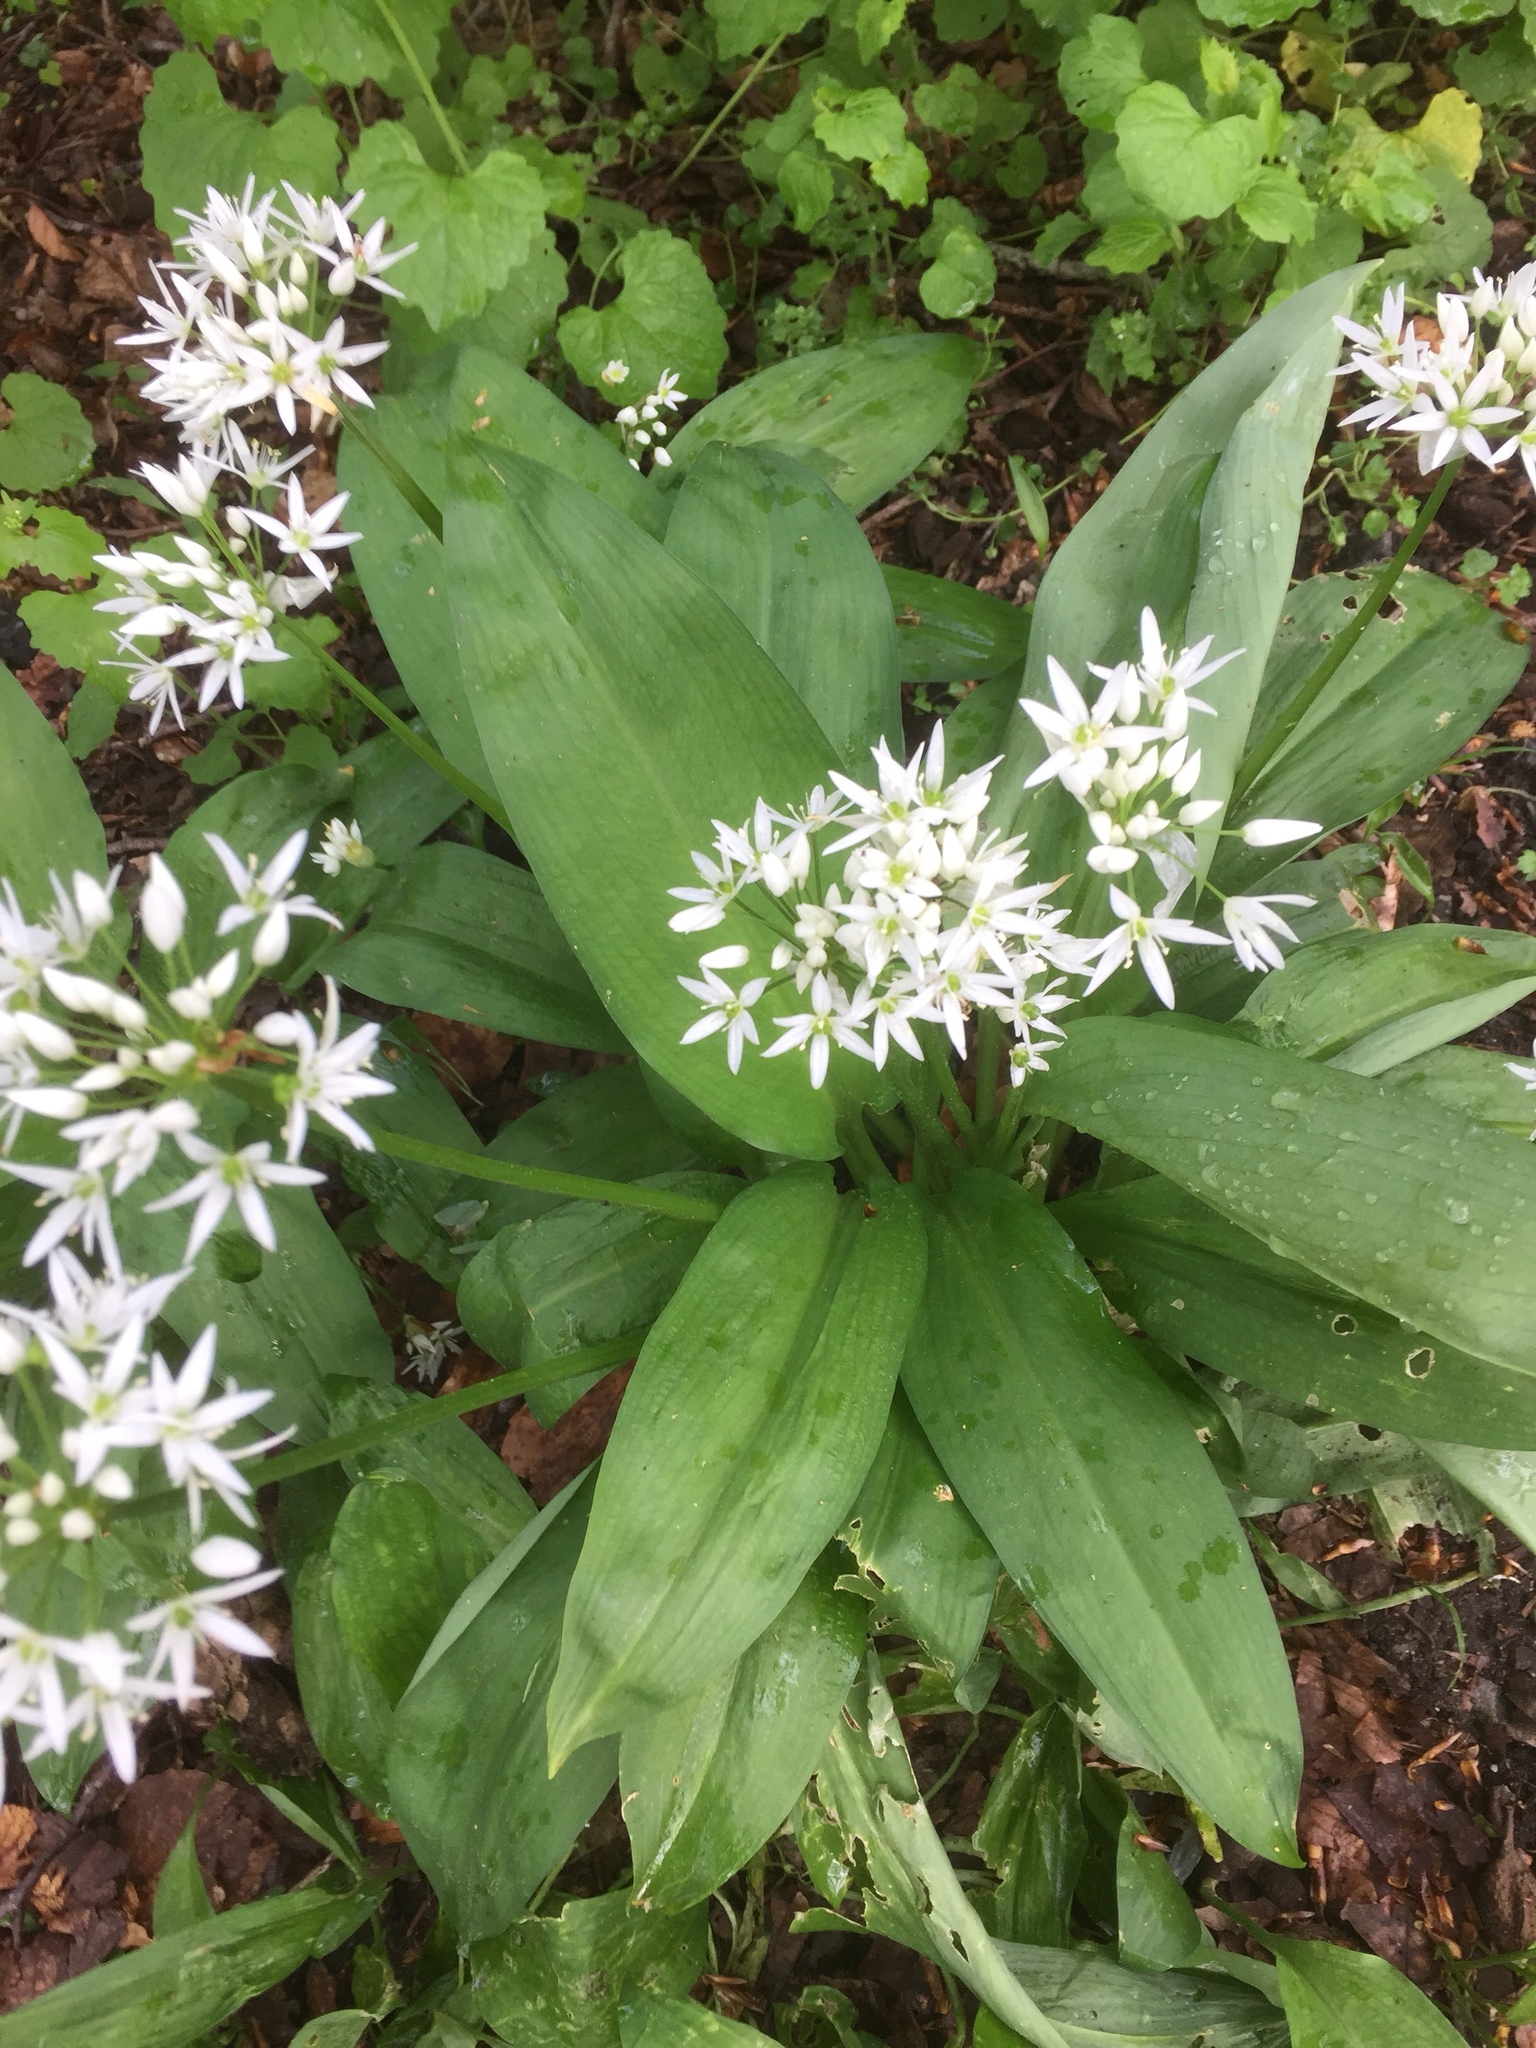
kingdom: Plantae
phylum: Tracheophyta
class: Liliopsida
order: Asparagales
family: Amaryllidaceae
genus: Allium
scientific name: Allium ursinum
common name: Ramsons
